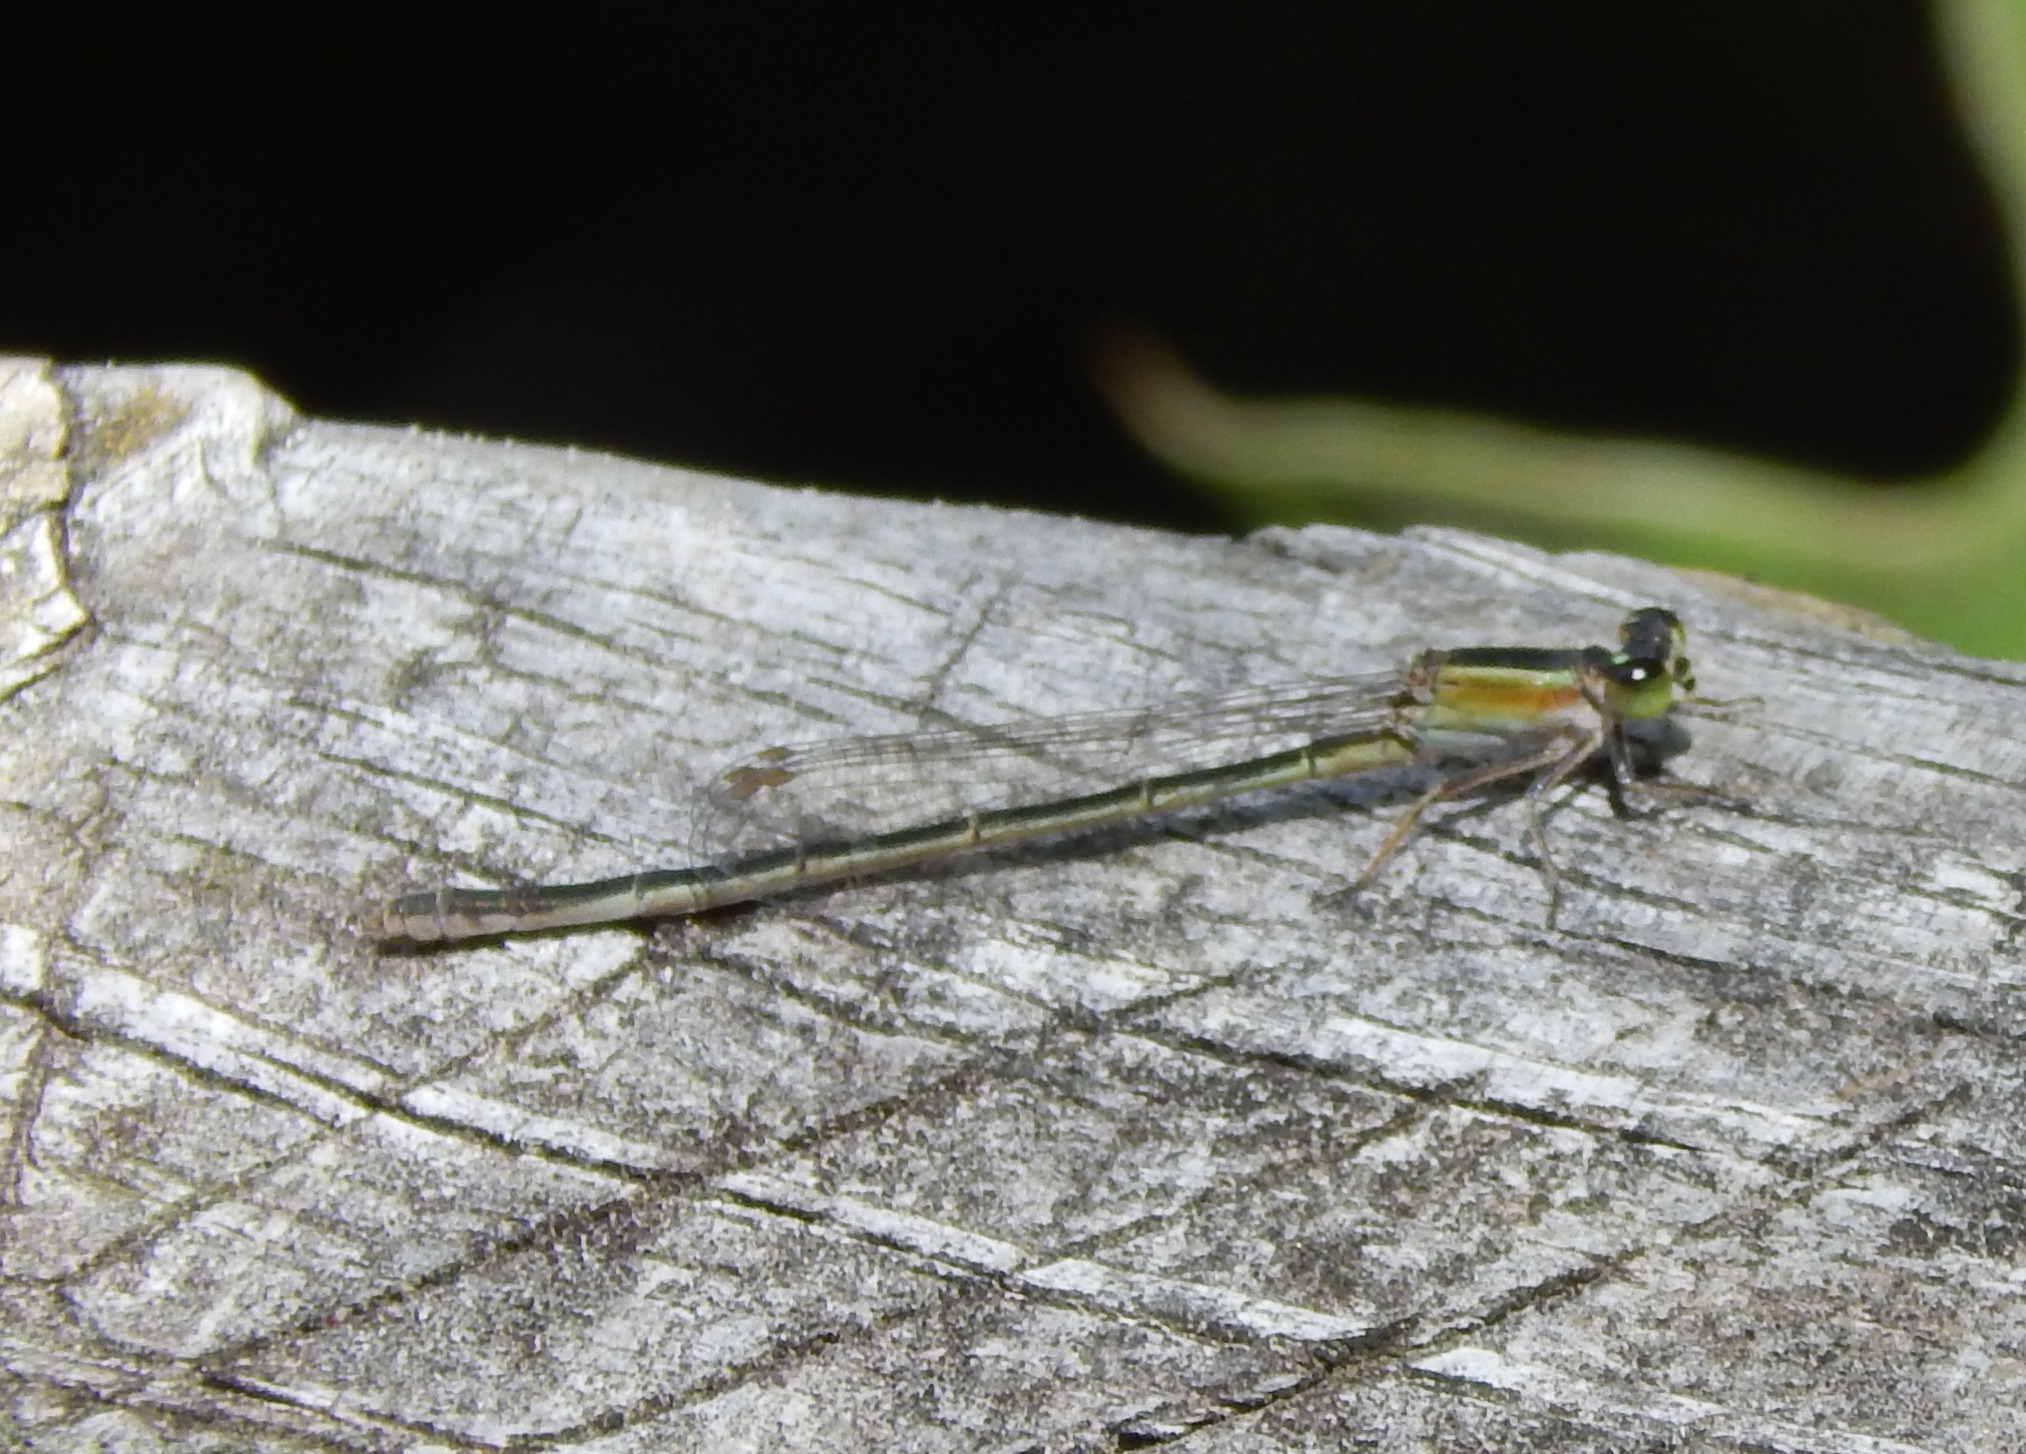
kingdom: Animalia
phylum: Arthropoda
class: Insecta
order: Odonata
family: Coenagrionidae
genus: Ischnura
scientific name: Ischnura ramburii
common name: Rambur's forktail
